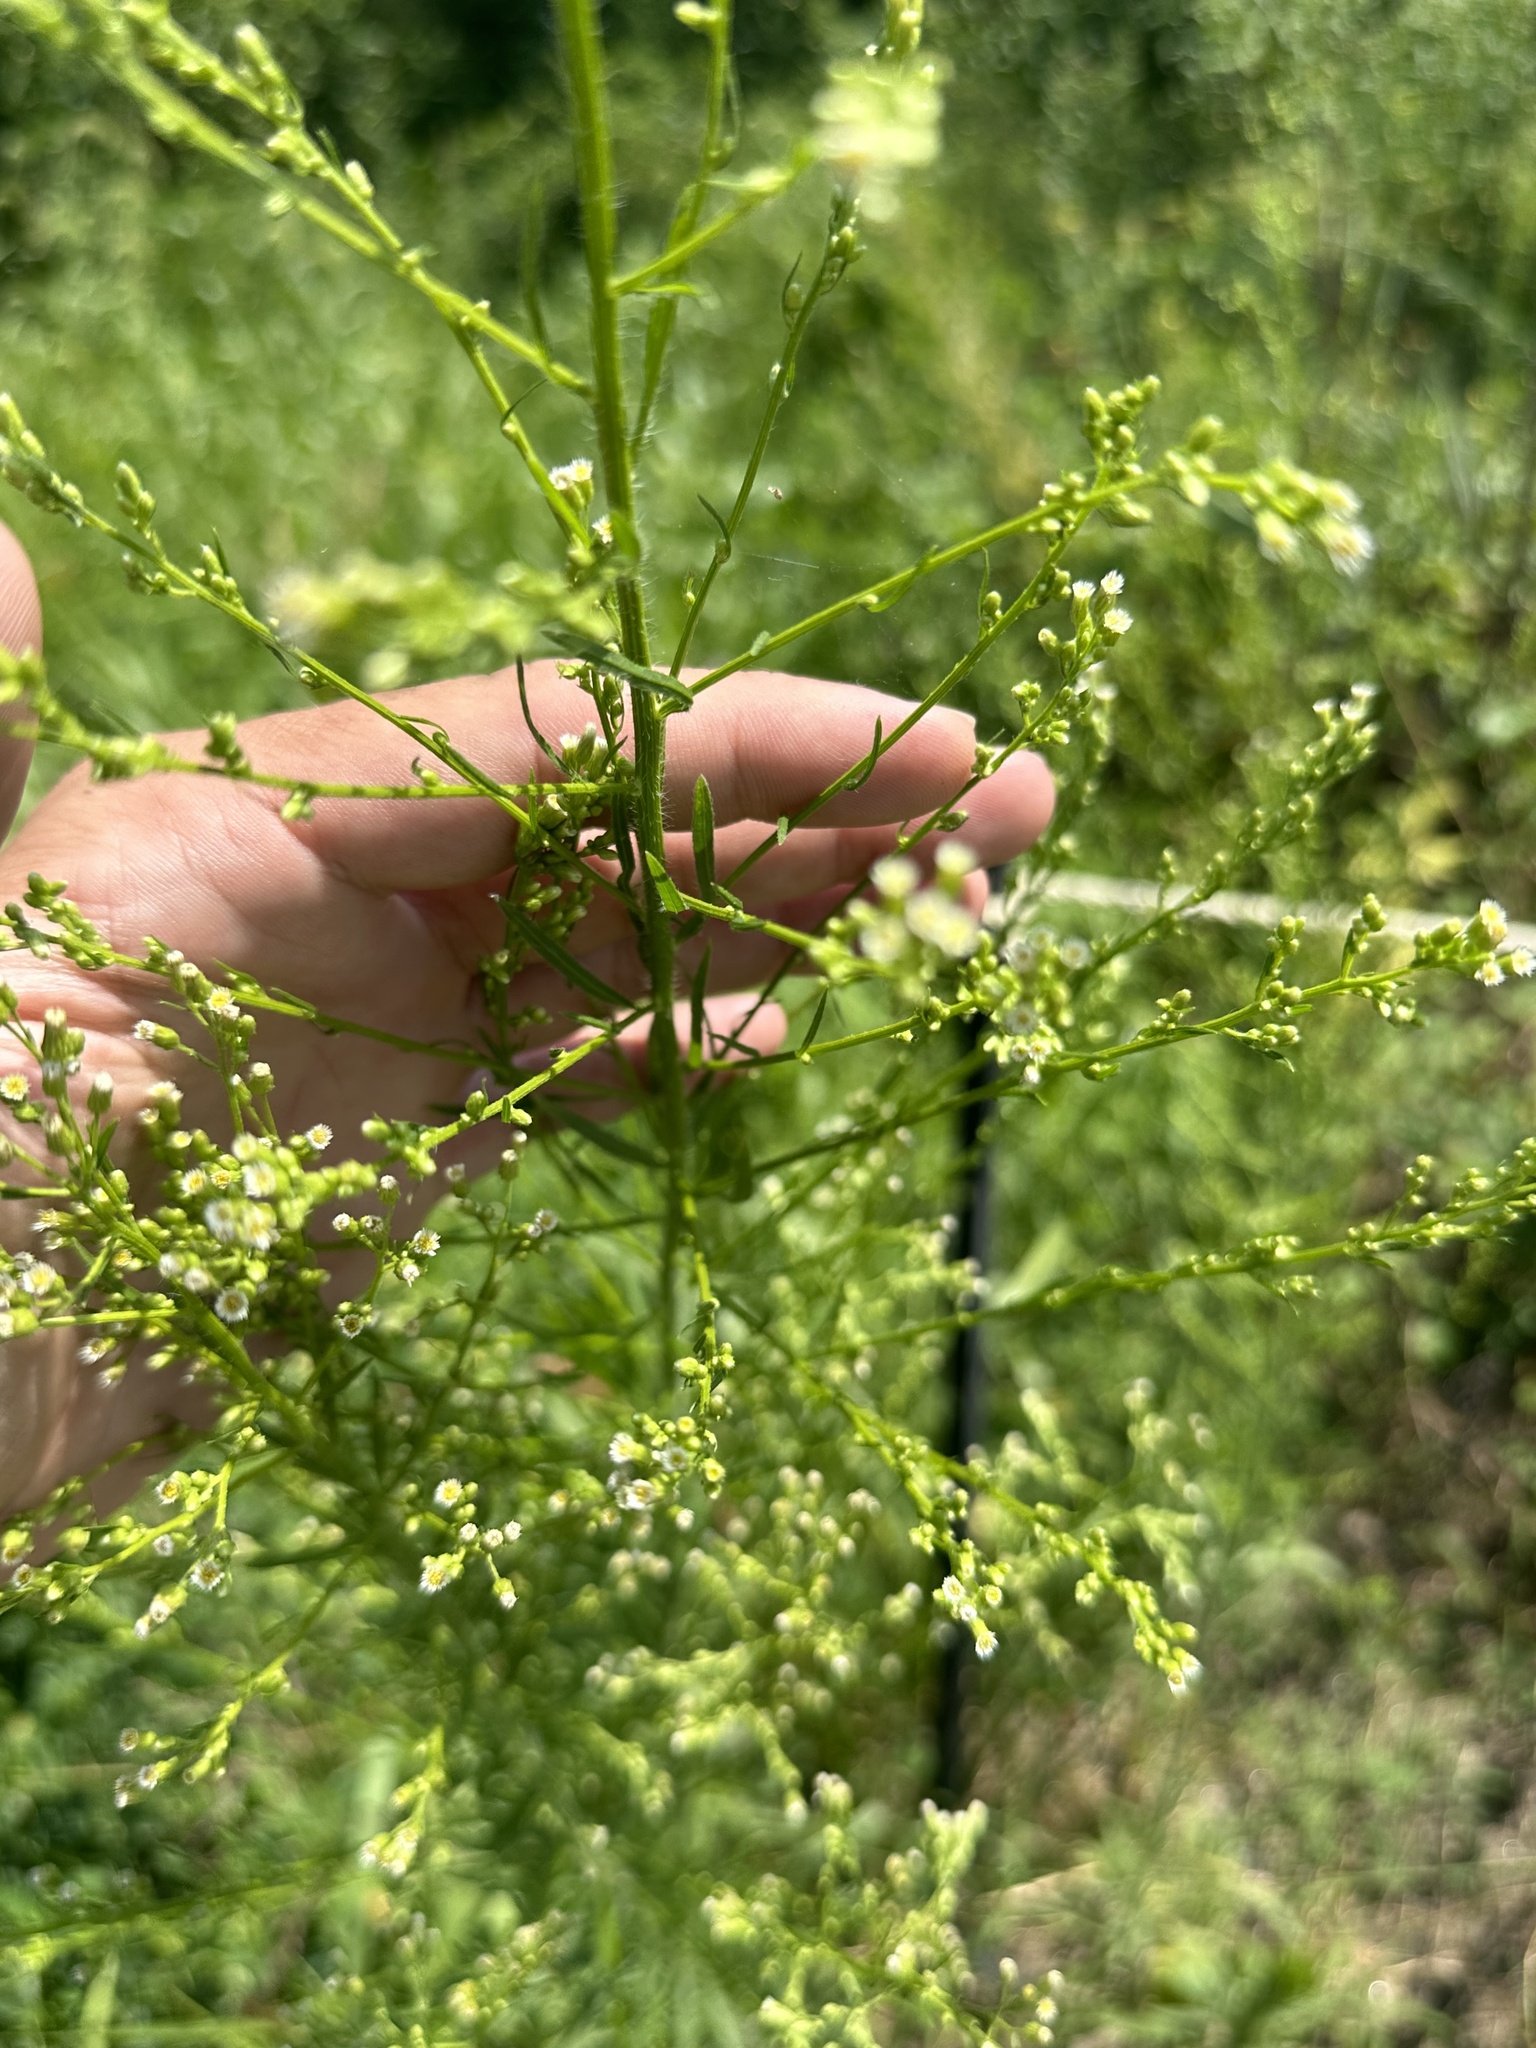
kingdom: Plantae
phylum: Tracheophyta
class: Magnoliopsida
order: Asterales
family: Asteraceae
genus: Erigeron
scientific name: Erigeron canadensis
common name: Canadian fleabane
